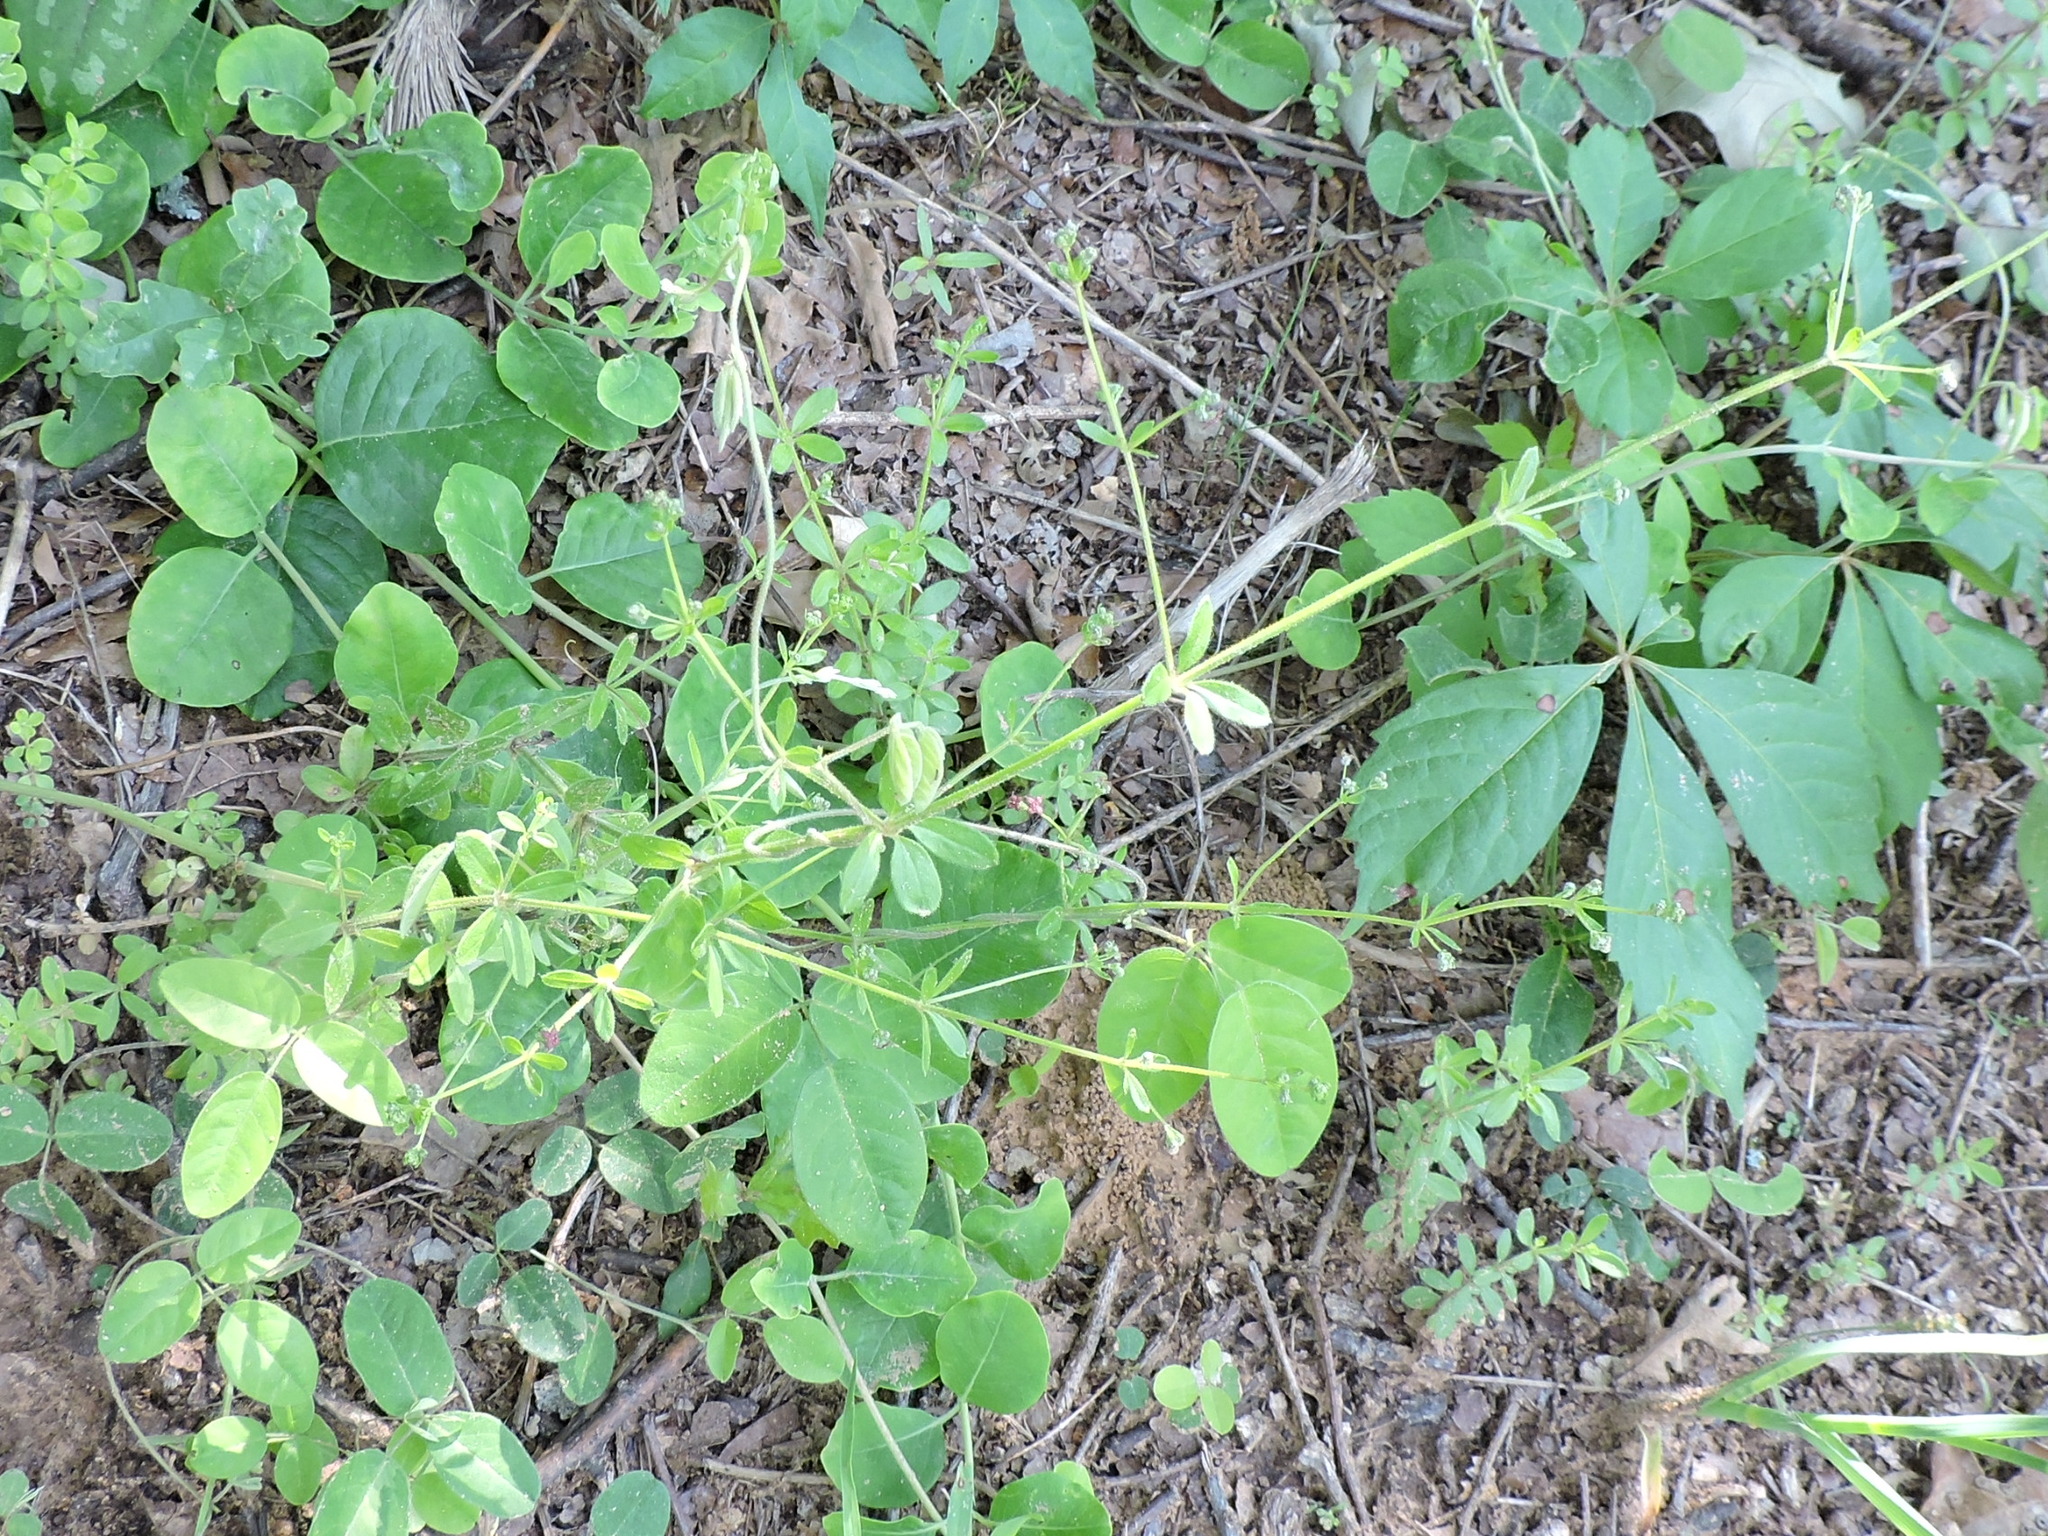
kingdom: Plantae
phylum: Tracheophyta
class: Magnoliopsida
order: Gentianales
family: Rubiaceae
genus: Galium
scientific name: Galium pilosum
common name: Hairy bedstraw
